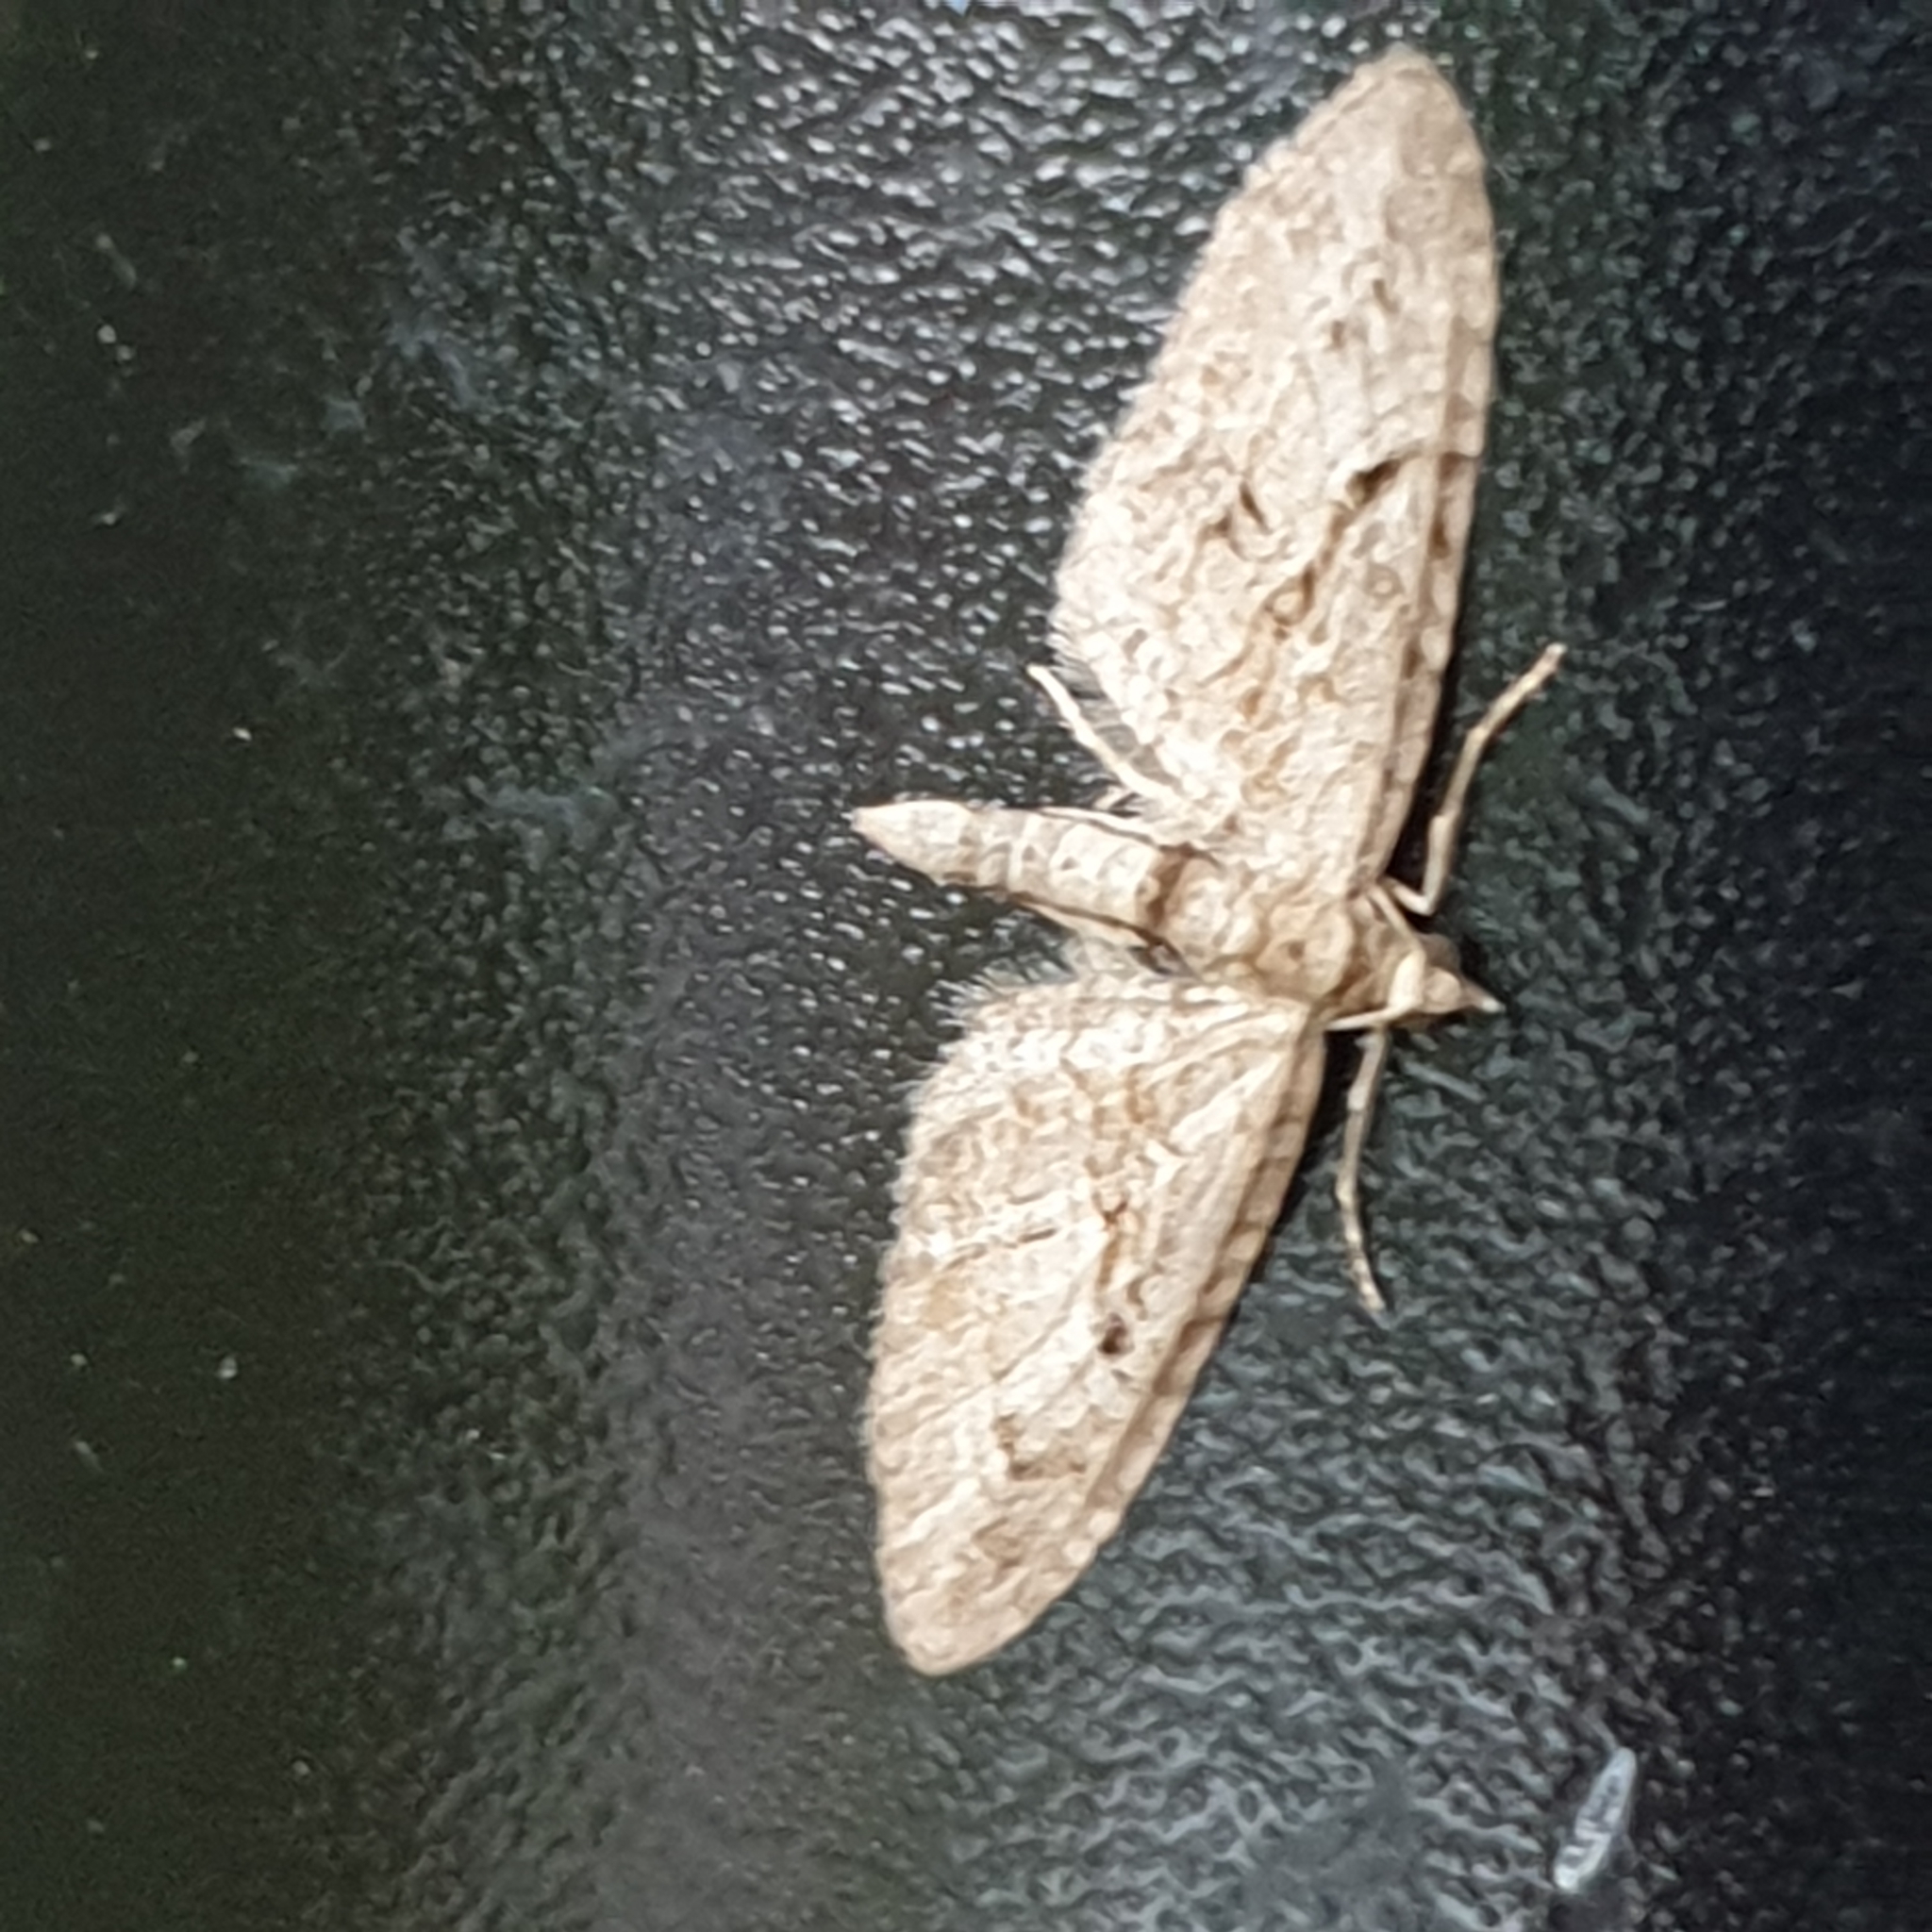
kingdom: Animalia
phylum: Arthropoda
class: Insecta
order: Lepidoptera
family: Geometridae
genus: Eupithecia
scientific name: Eupithecia pusillata
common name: Juniper pug
